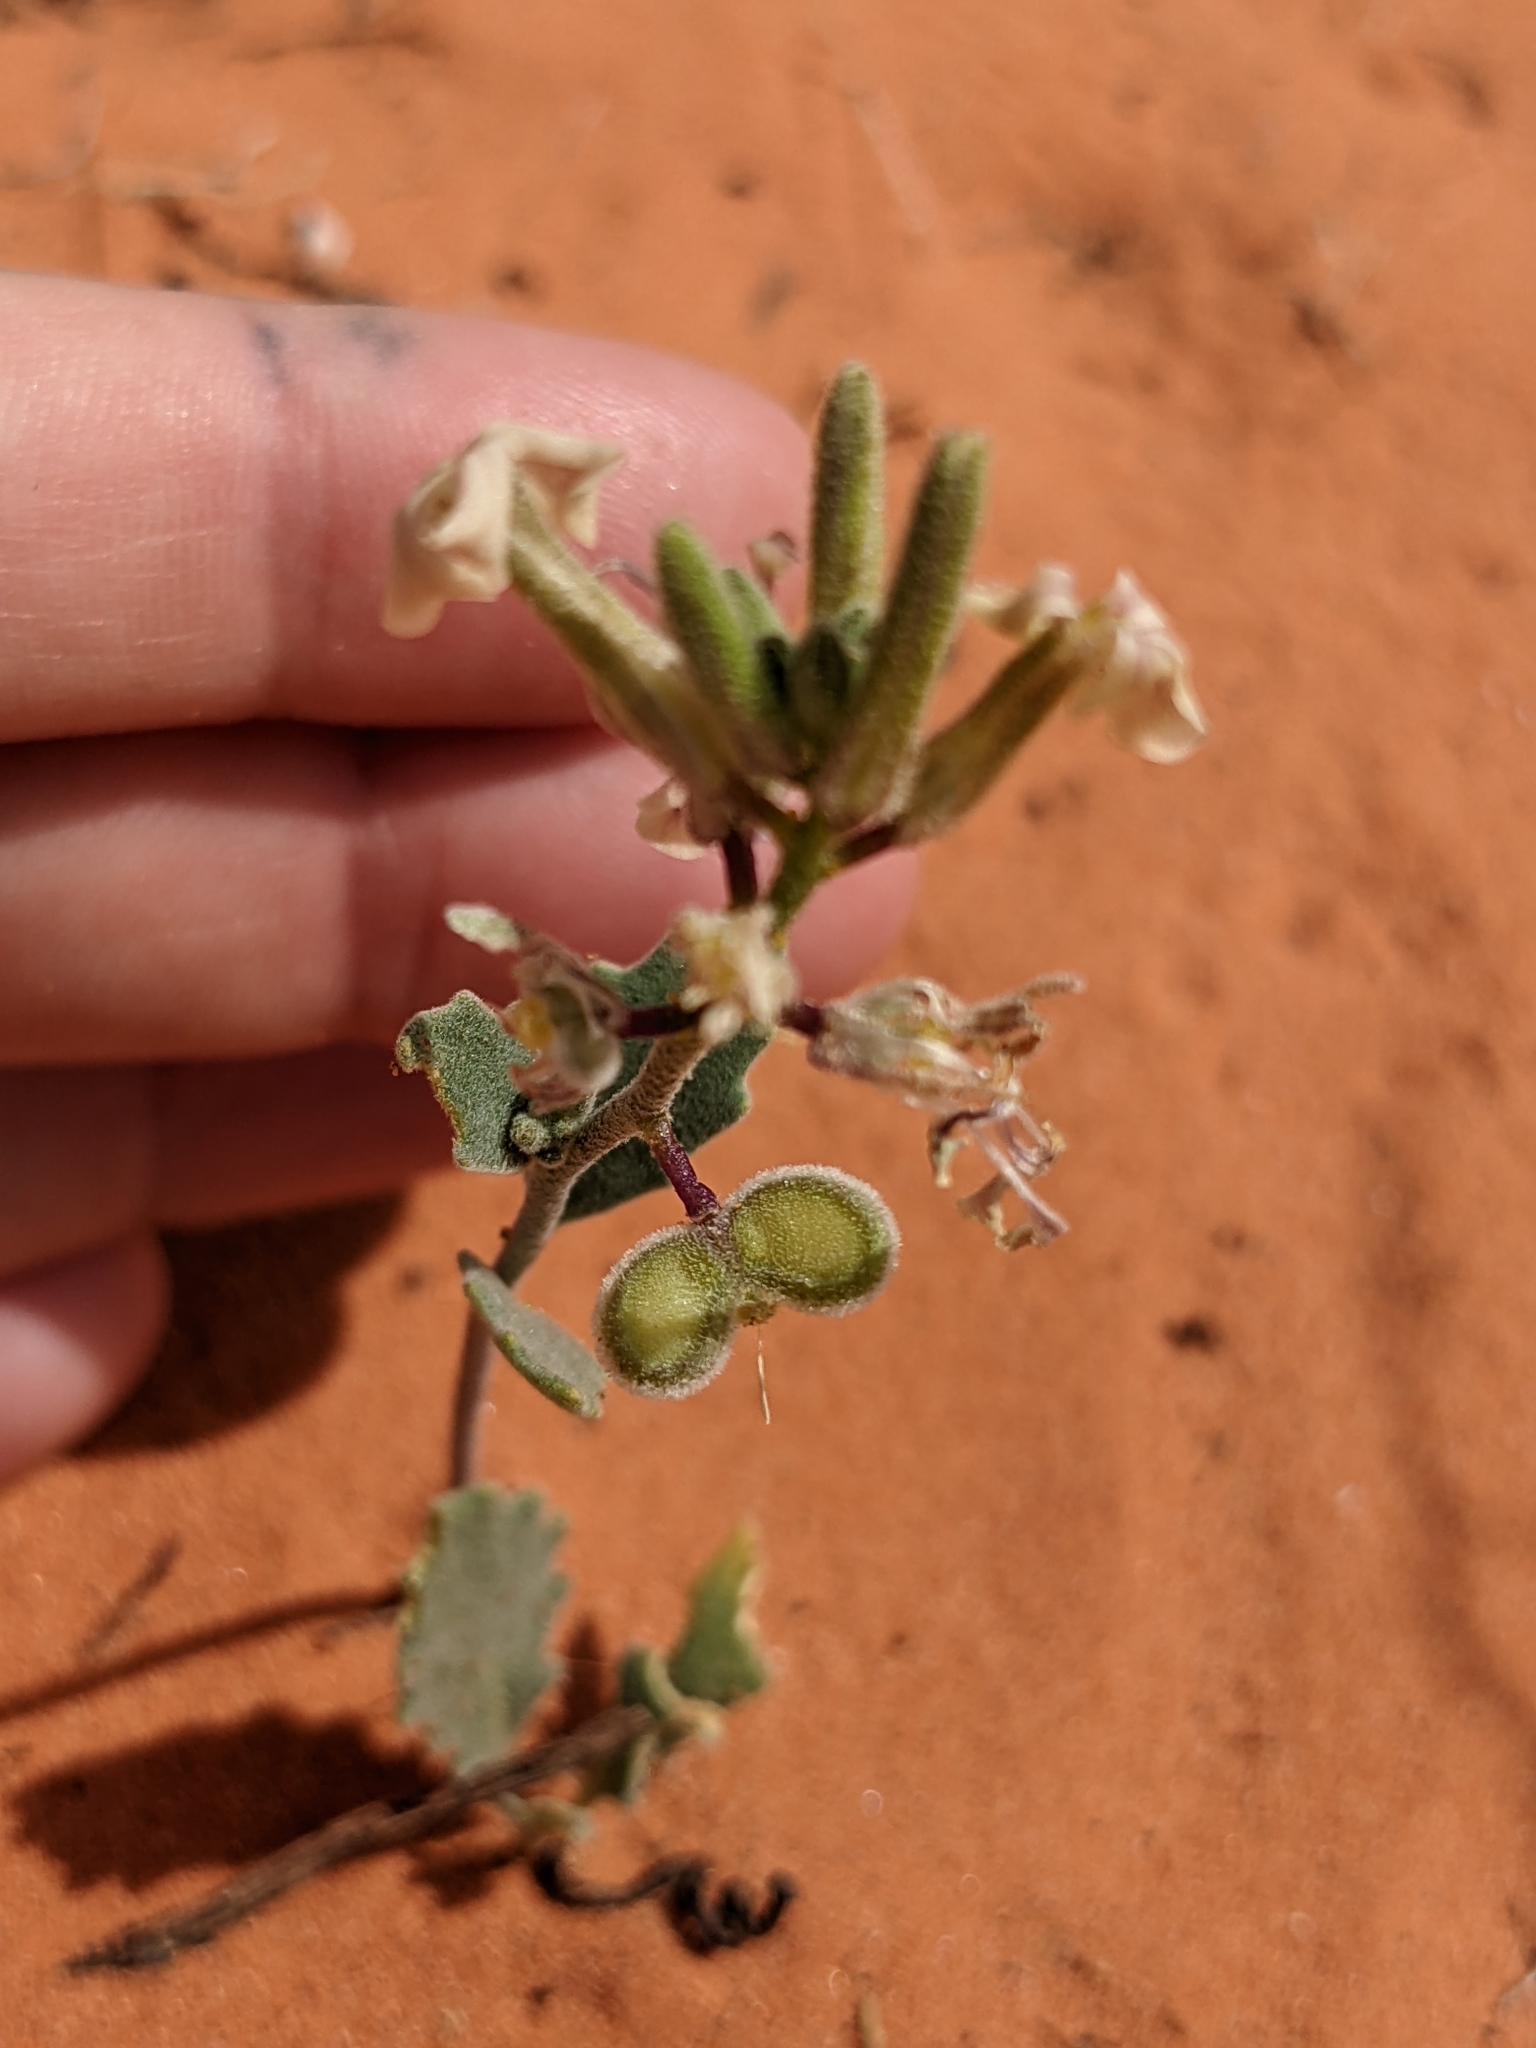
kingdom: Plantae
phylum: Tracheophyta
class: Magnoliopsida
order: Brassicales
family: Brassicaceae
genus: Dithyrea
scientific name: Dithyrea californica
